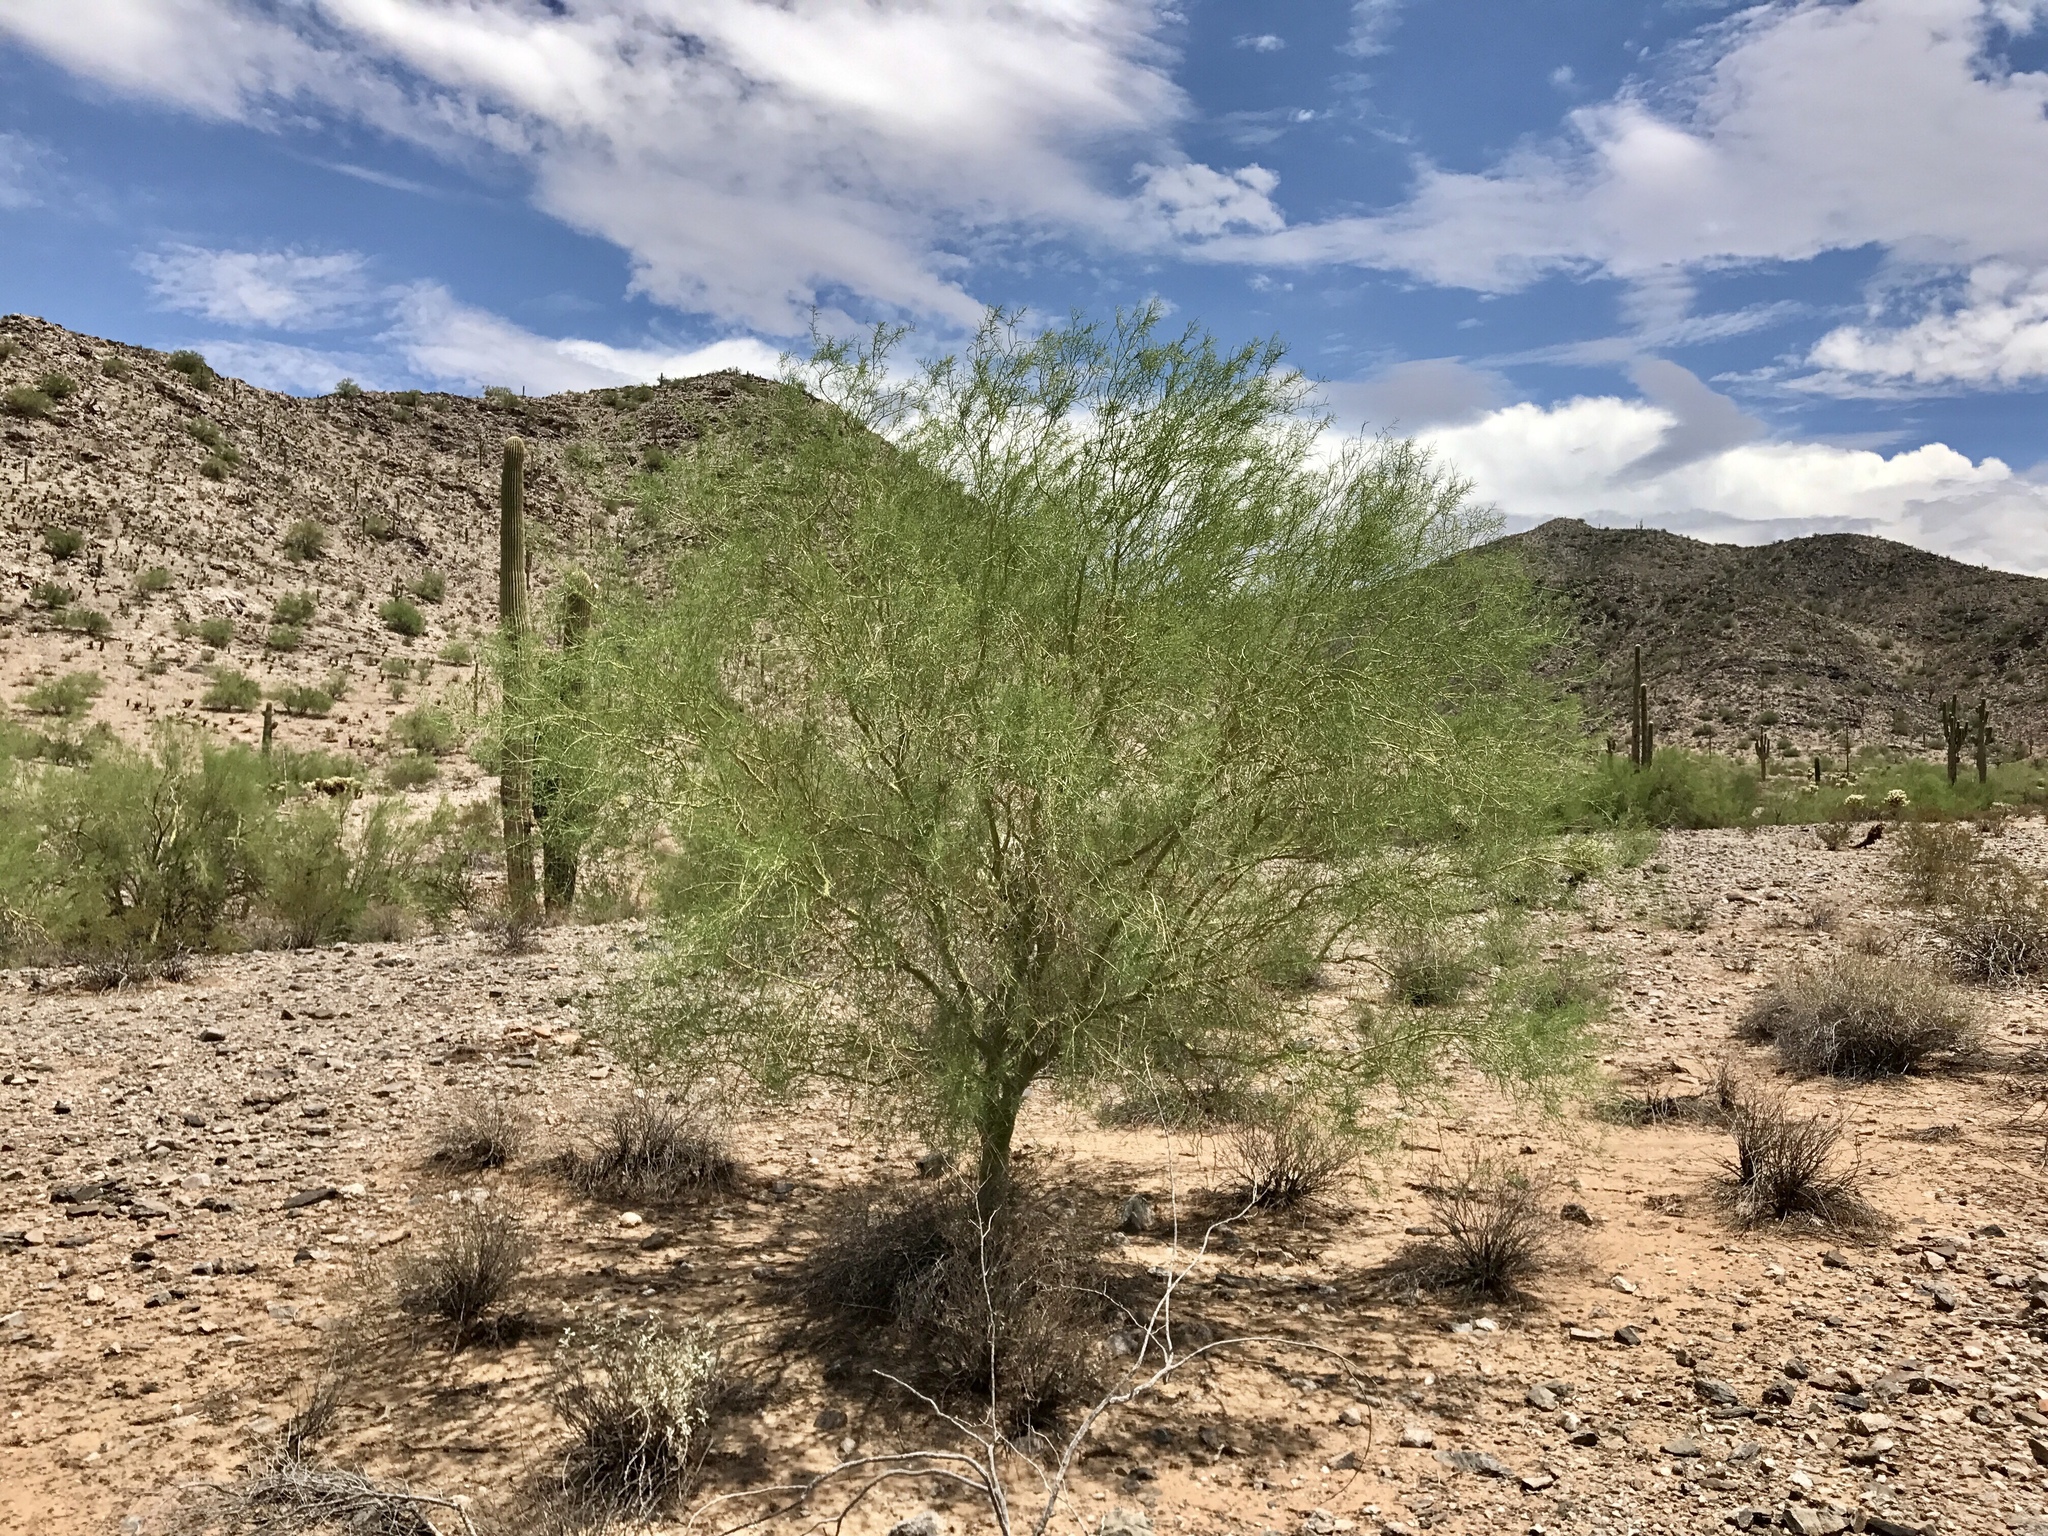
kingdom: Plantae
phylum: Tracheophyta
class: Magnoliopsida
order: Fabales
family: Fabaceae
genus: Parkinsonia
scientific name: Parkinsonia microphylla
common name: Yellow paloverde
